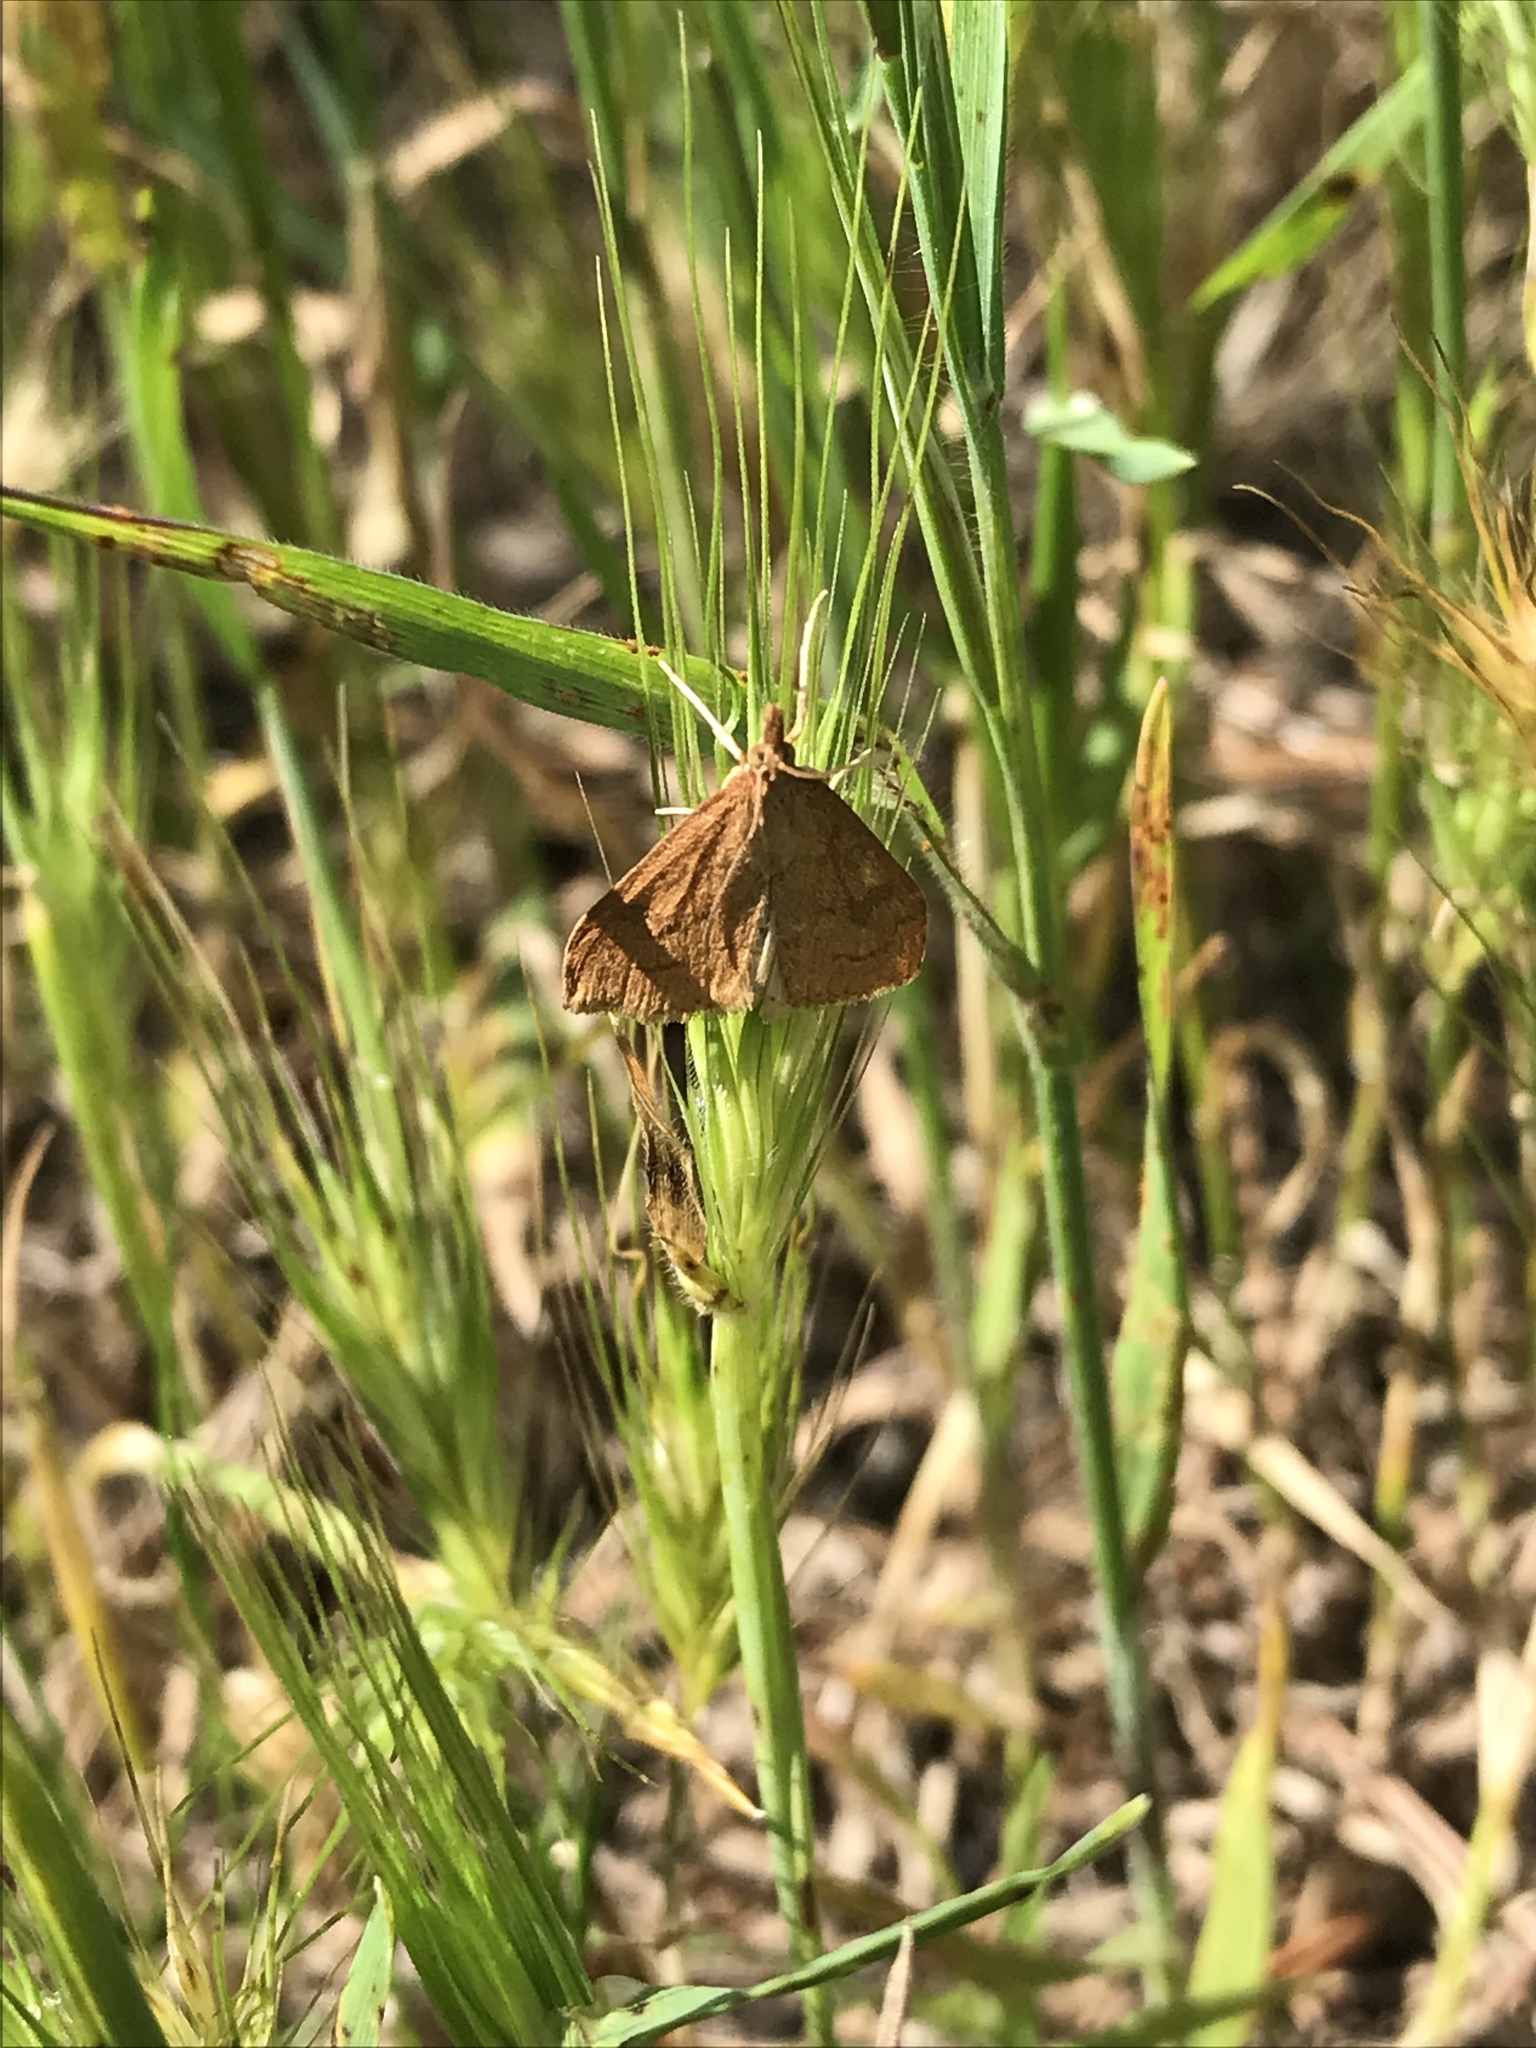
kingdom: Animalia
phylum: Arthropoda
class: Insecta
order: Lepidoptera
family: Crambidae
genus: Uresiphita
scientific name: Uresiphita reversalis
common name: Genista broom moth
